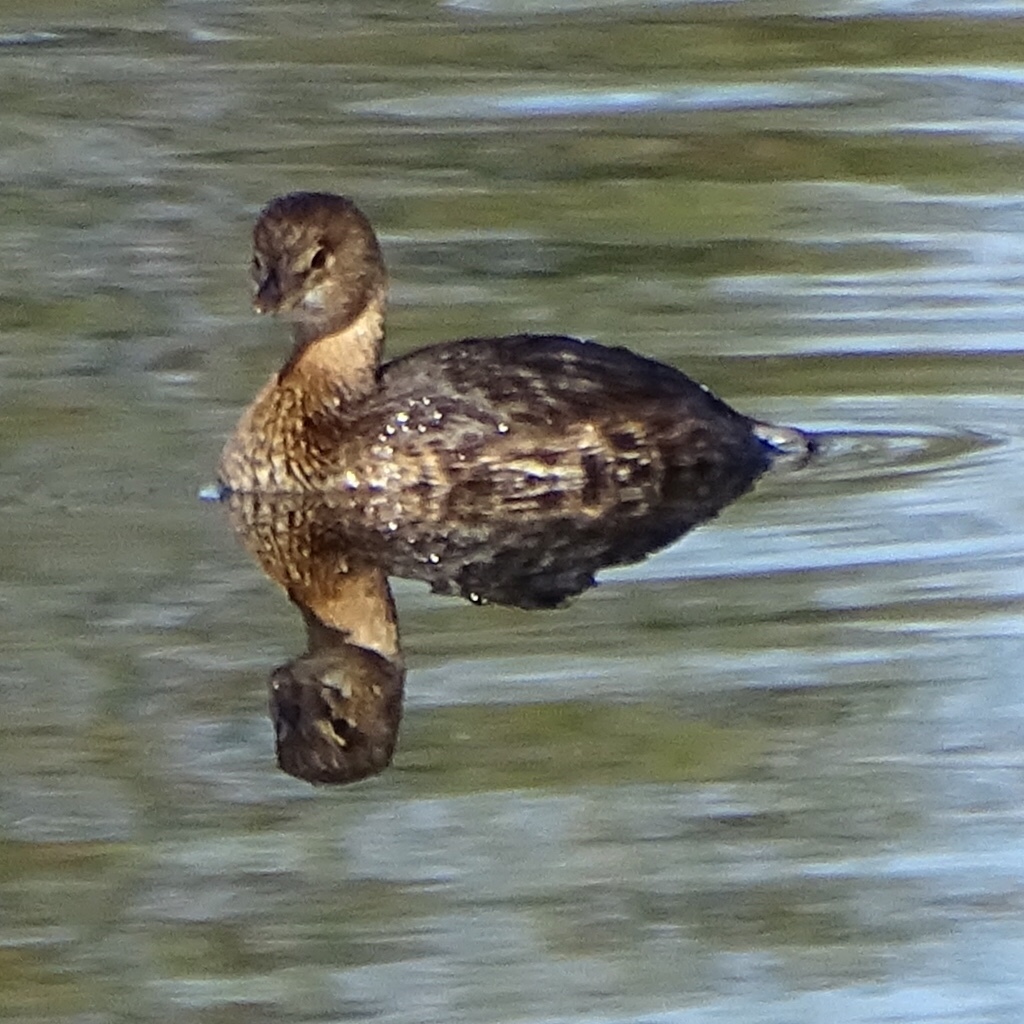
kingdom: Animalia
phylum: Chordata
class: Aves
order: Podicipediformes
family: Podicipedidae
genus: Podilymbus
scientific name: Podilymbus podiceps
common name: Pied-billed grebe
